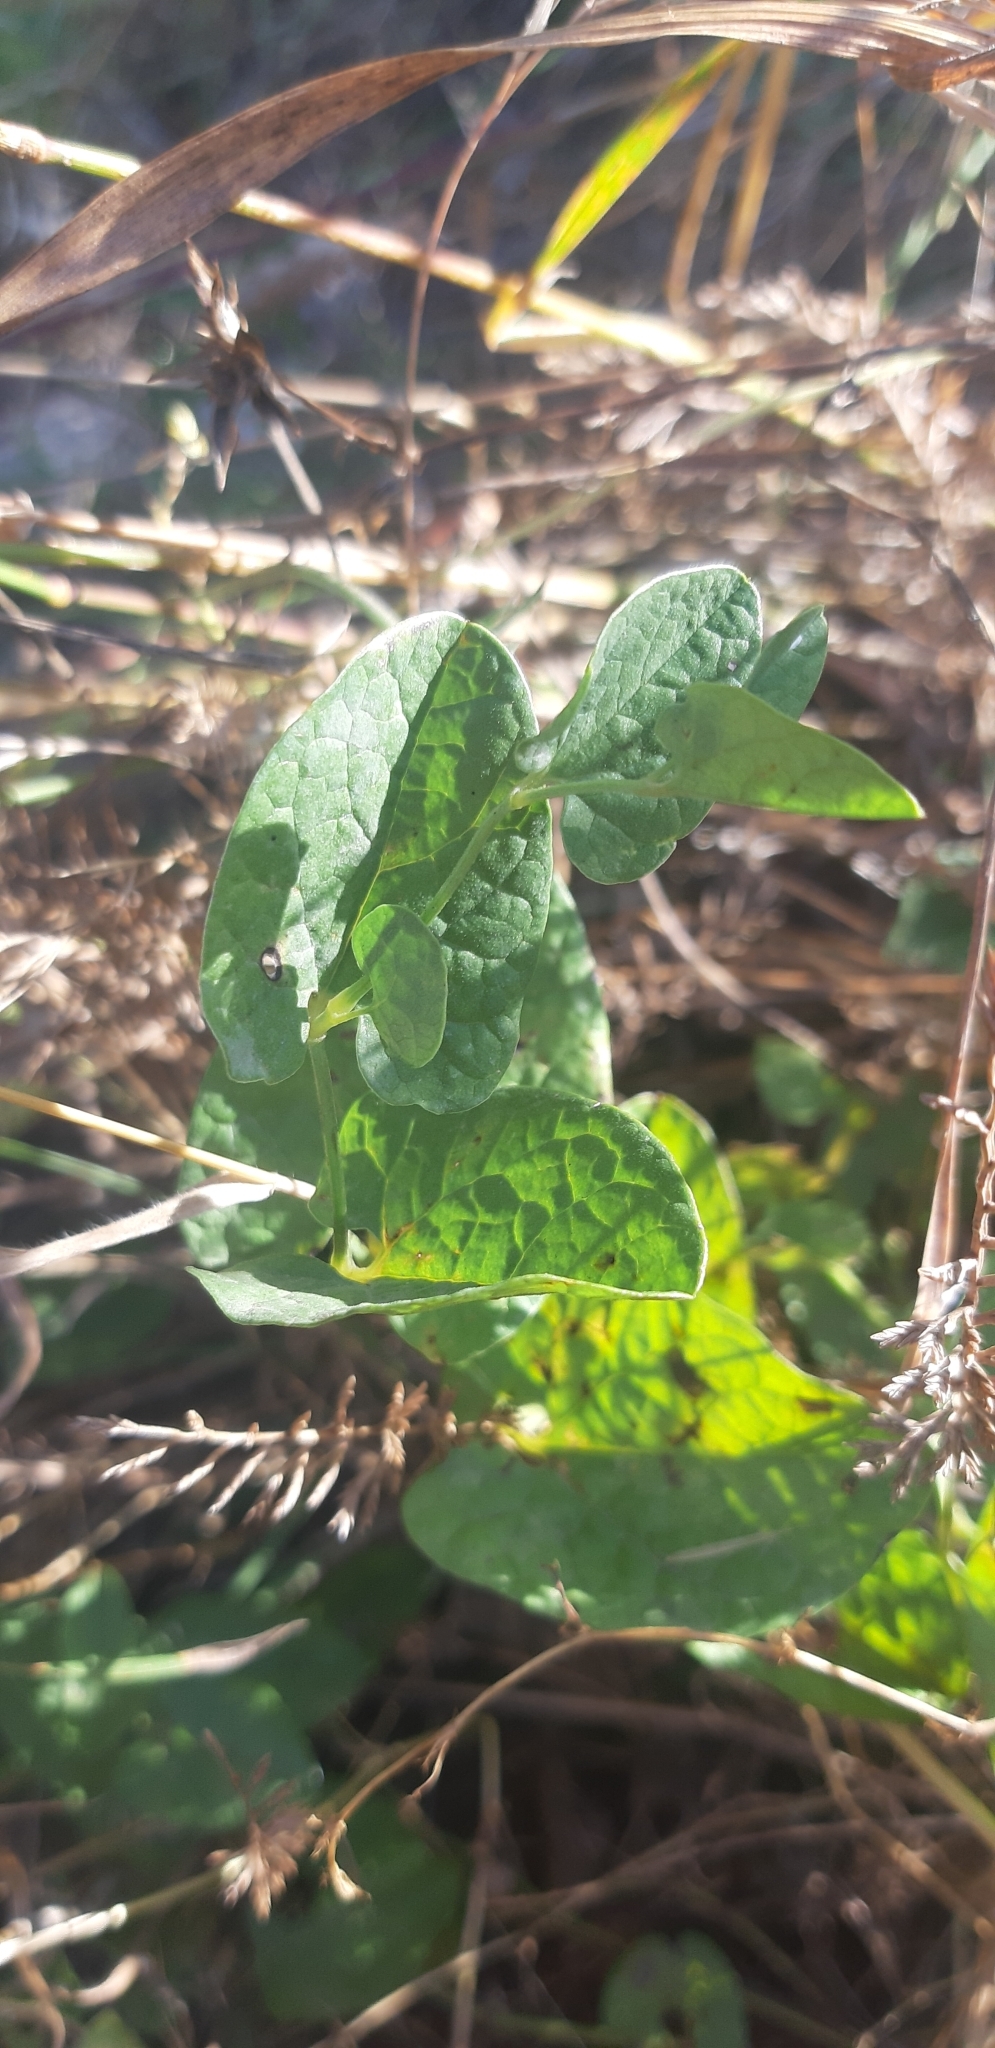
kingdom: Plantae
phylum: Tracheophyta
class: Magnoliopsida
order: Piperales
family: Aristolochiaceae
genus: Aristolochia
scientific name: Aristolochia clusii
